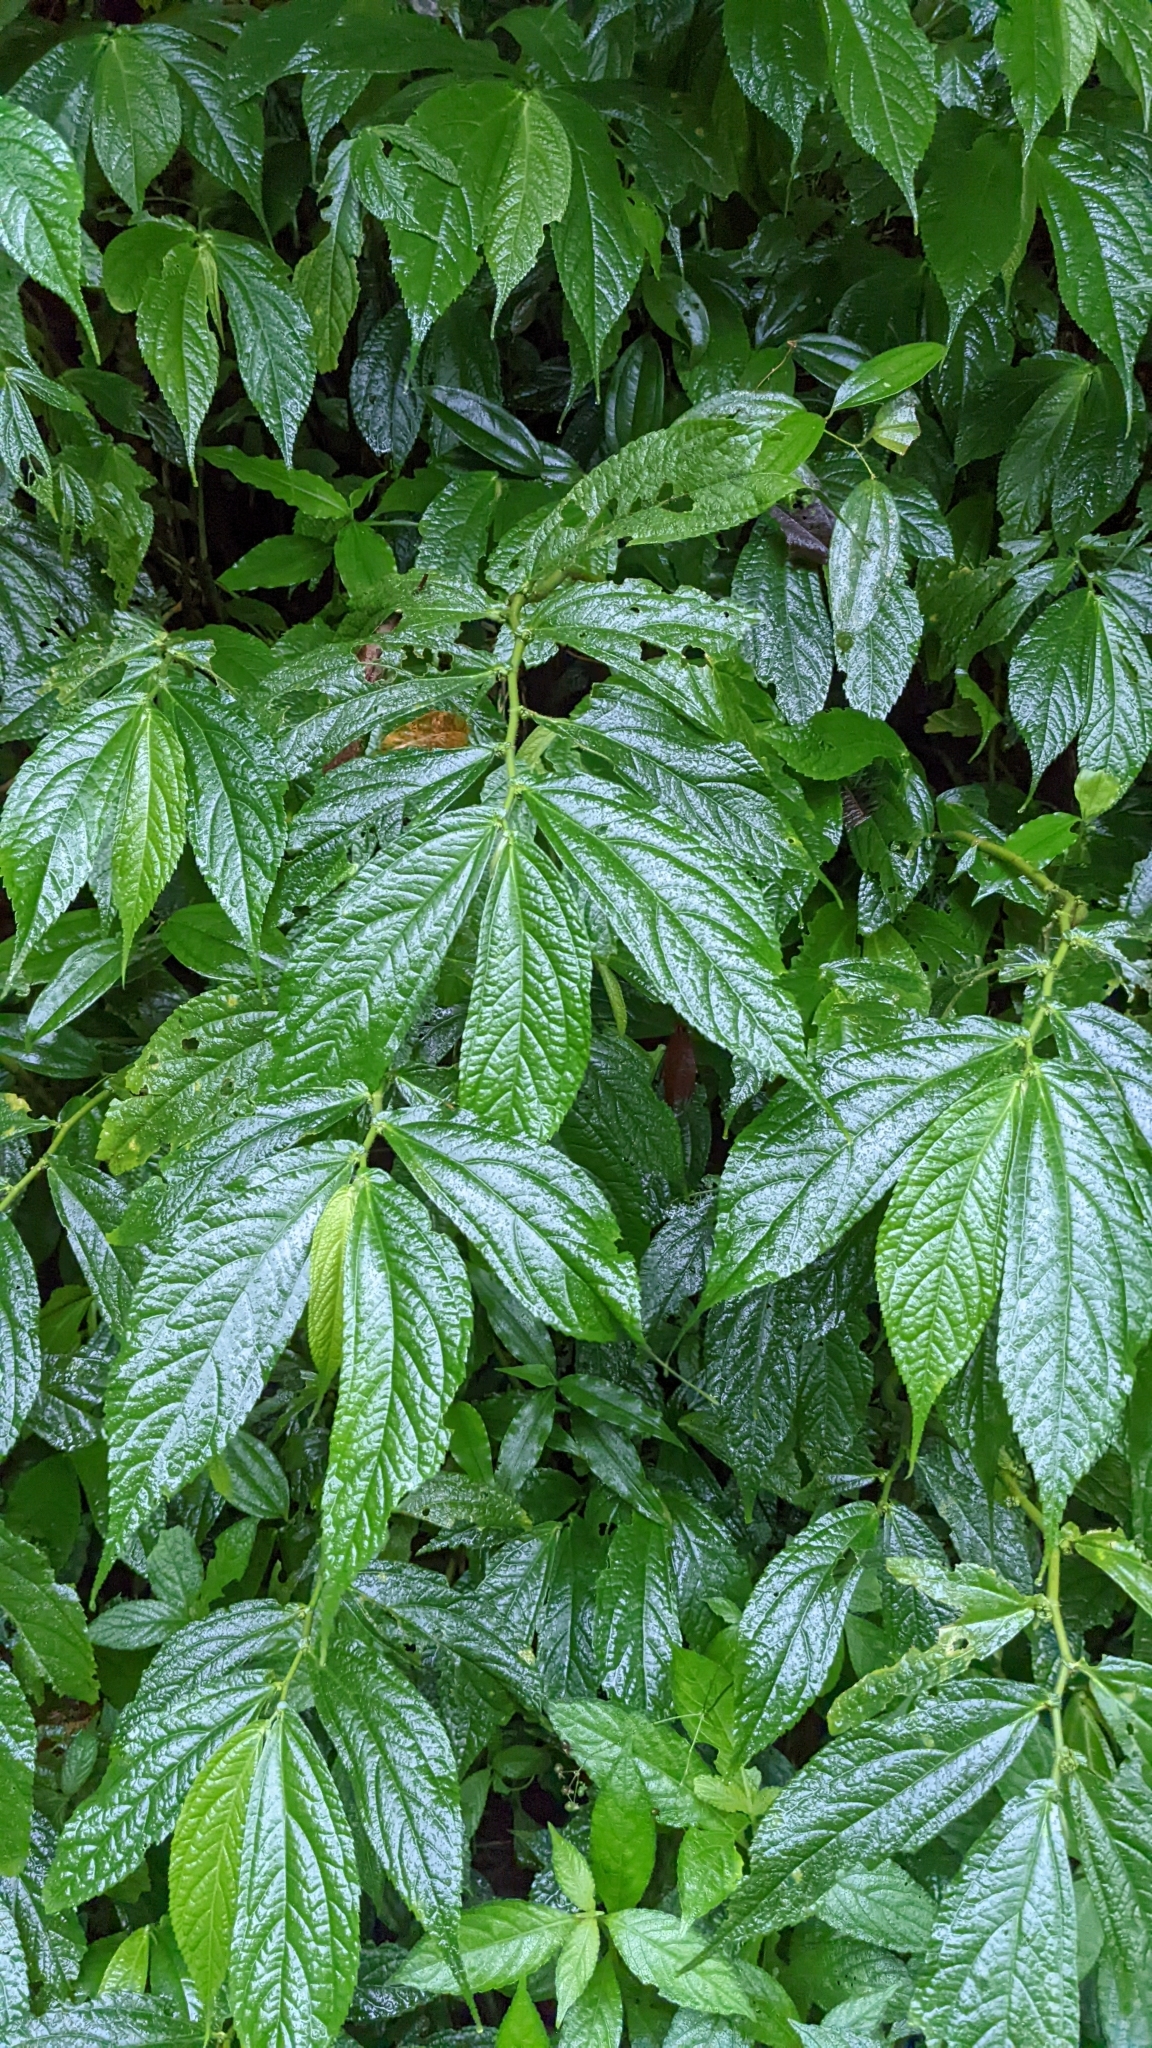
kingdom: Plantae
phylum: Tracheophyta
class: Magnoliopsida
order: Rosales
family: Urticaceae
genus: Elatostema
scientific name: Elatostema platyphyllum
